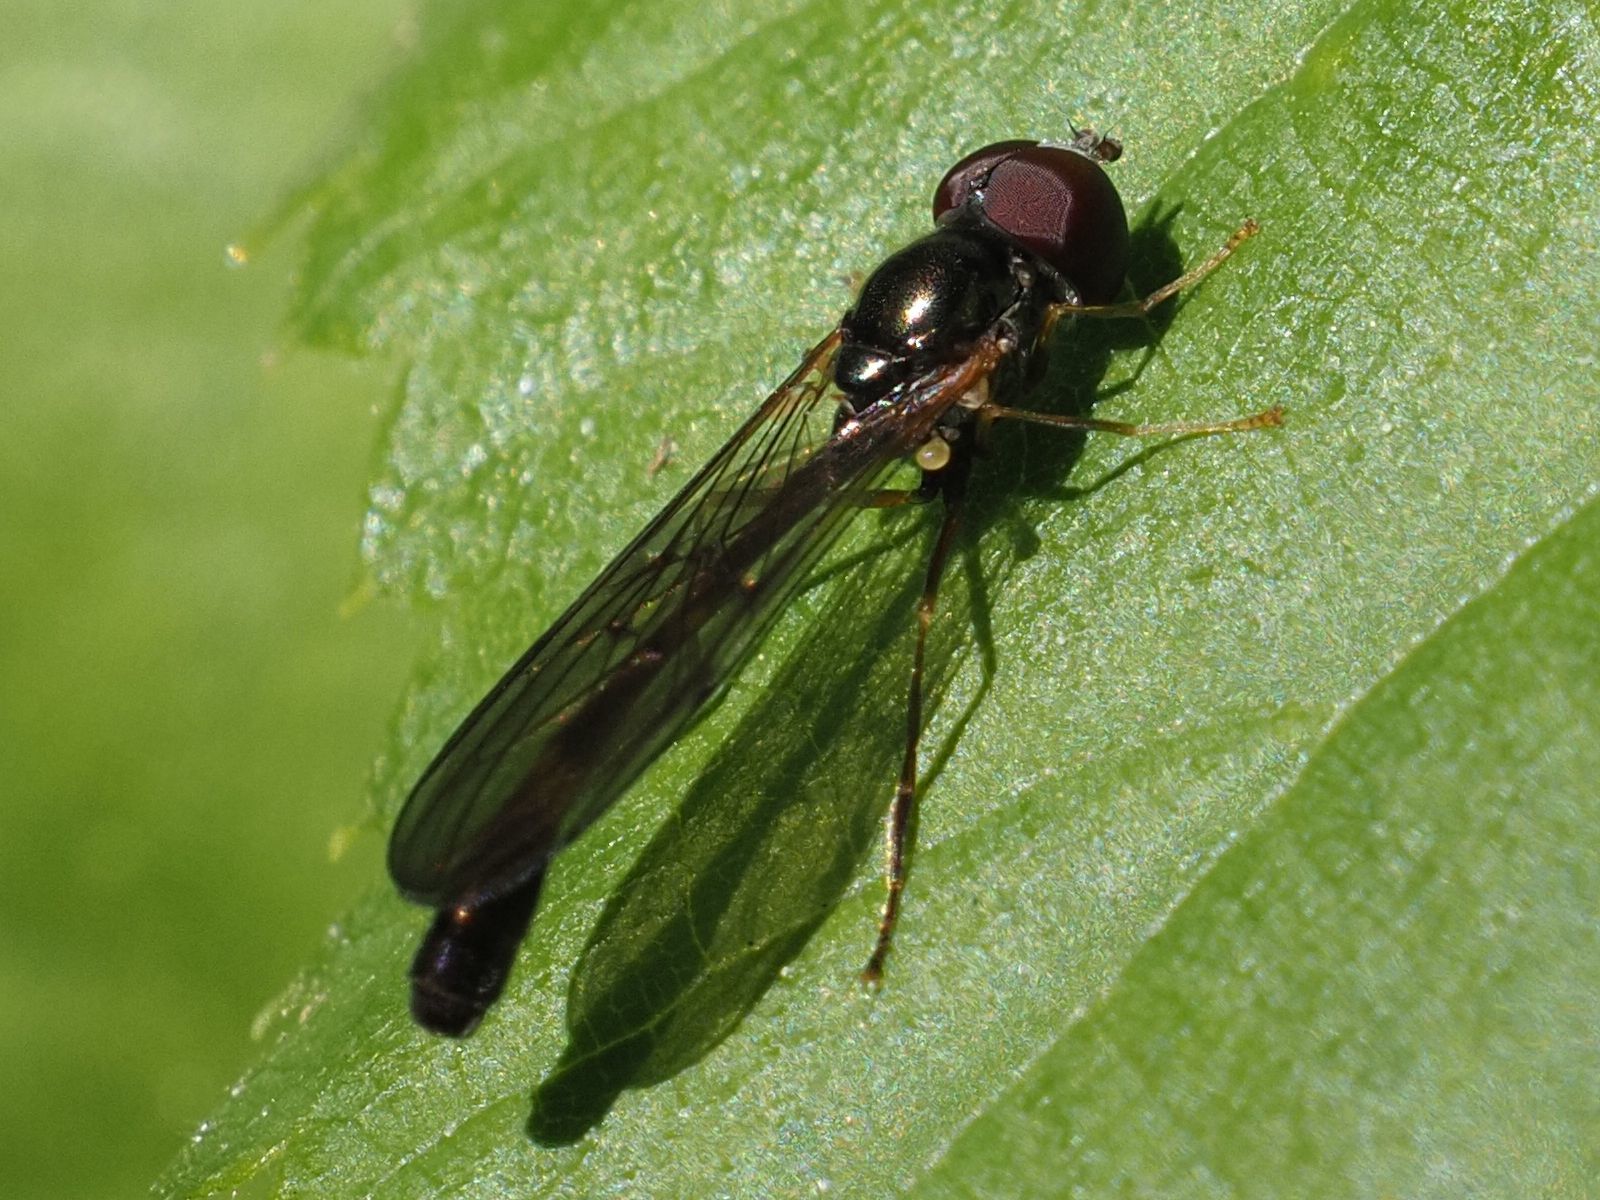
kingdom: Animalia
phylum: Arthropoda
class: Insecta
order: Diptera
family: Syrphidae
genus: Baccha
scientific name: Baccha elongata
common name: Common dainty
